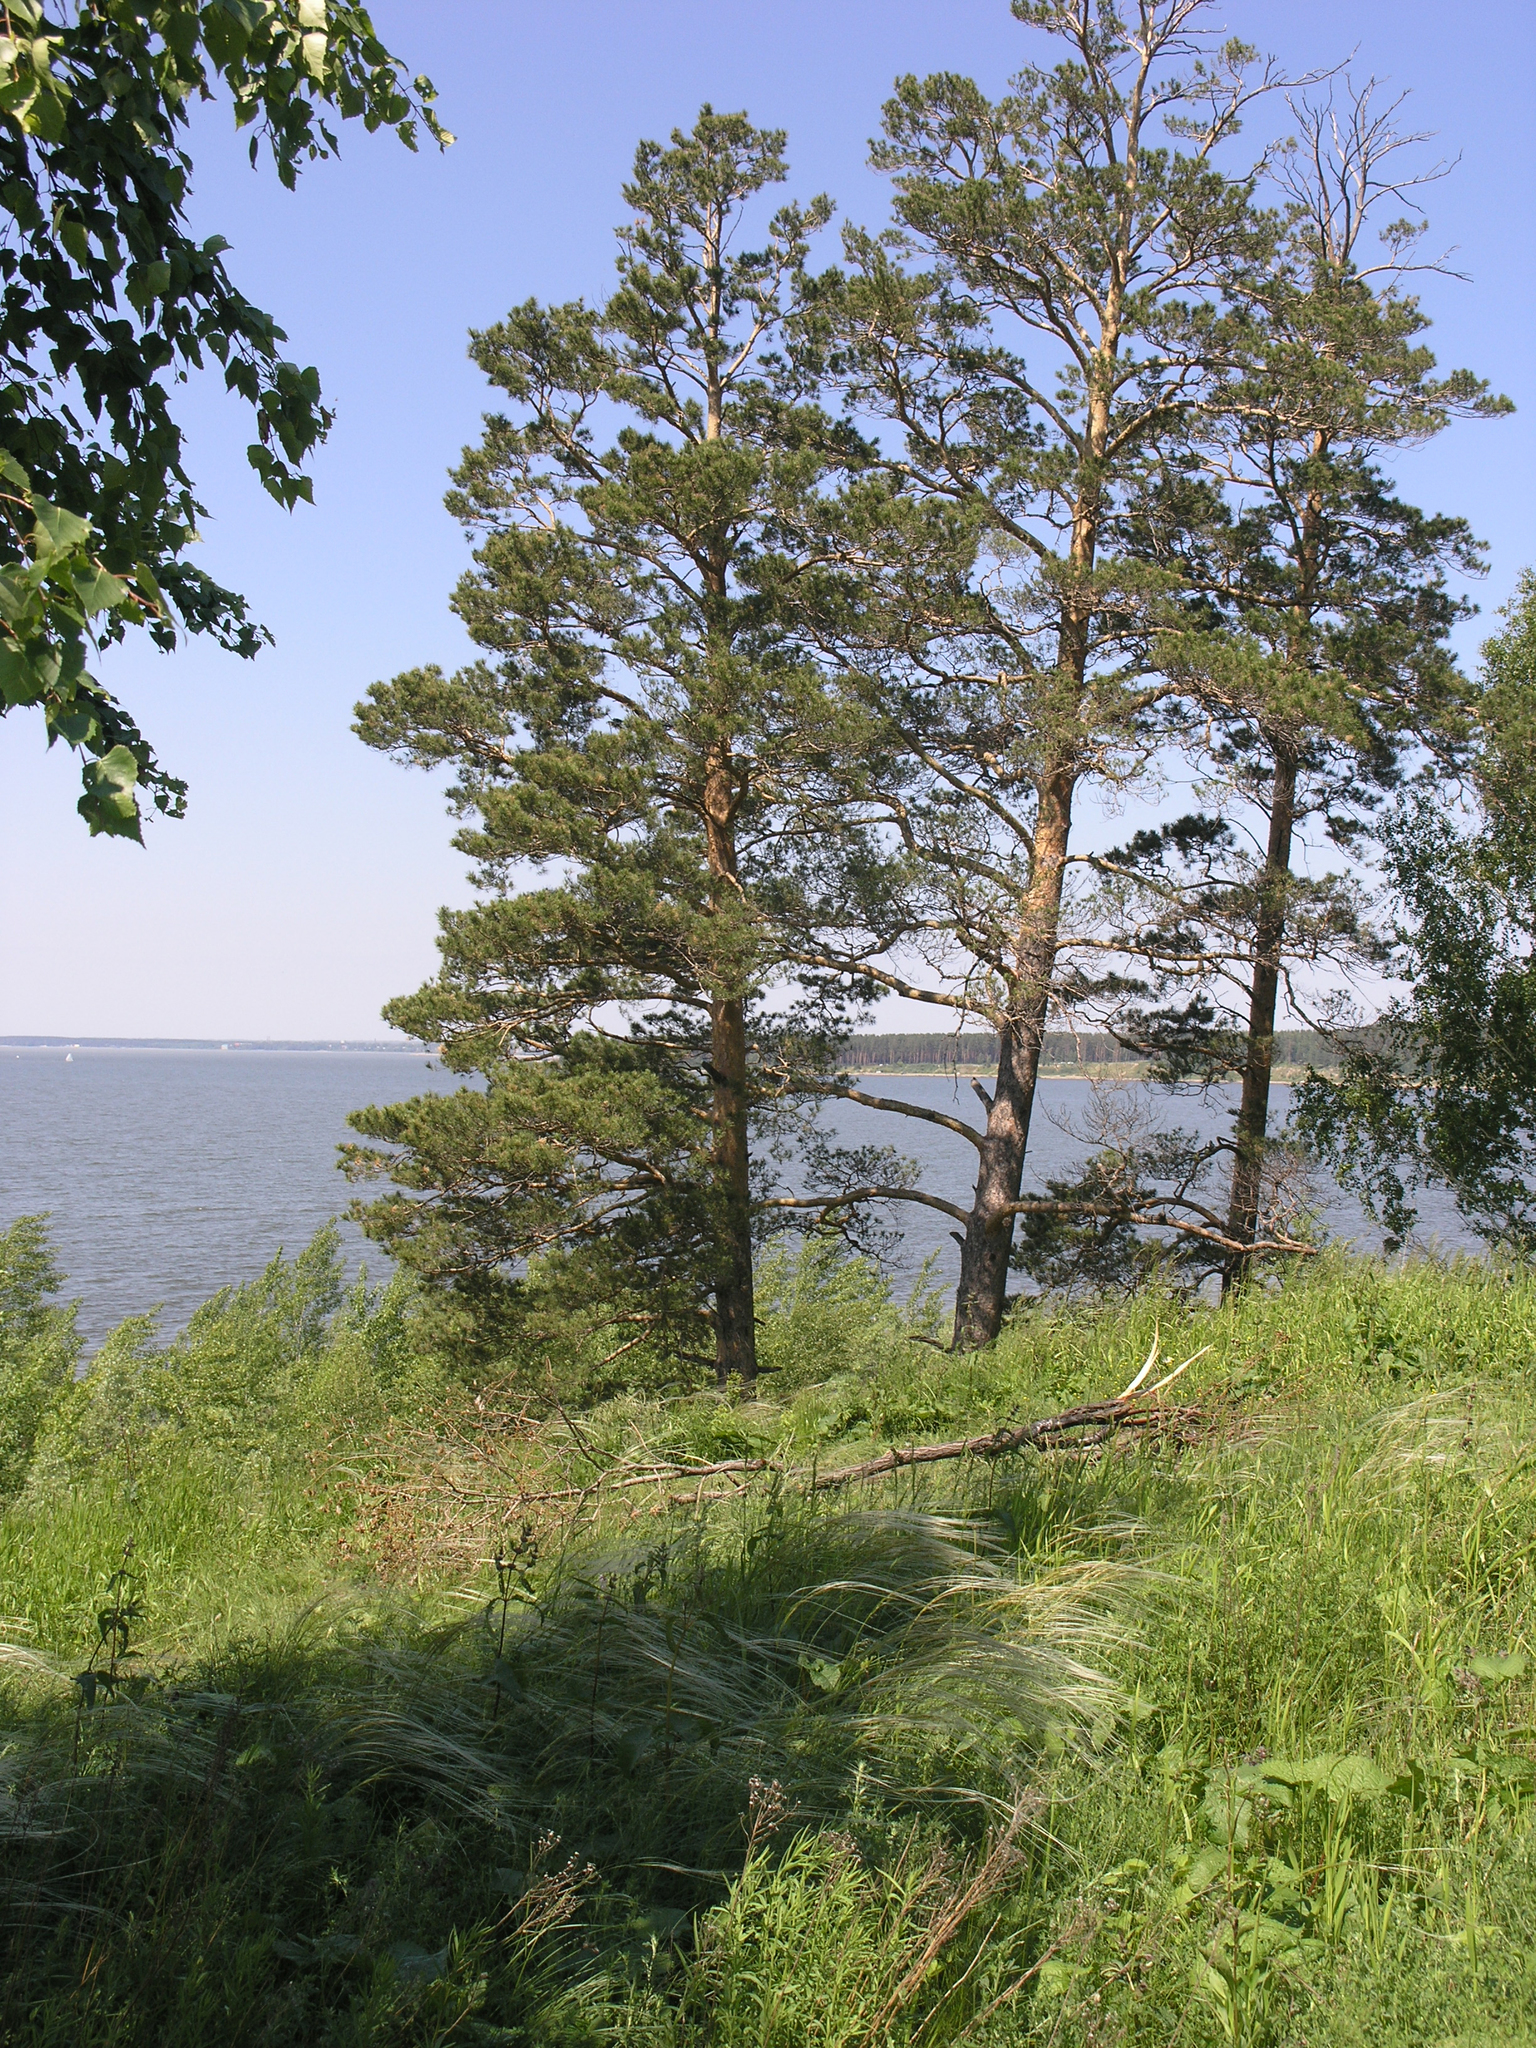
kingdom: Plantae
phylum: Tracheophyta
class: Pinopsida
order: Pinales
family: Pinaceae
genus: Pinus
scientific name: Pinus sylvestris
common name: Scots pine
